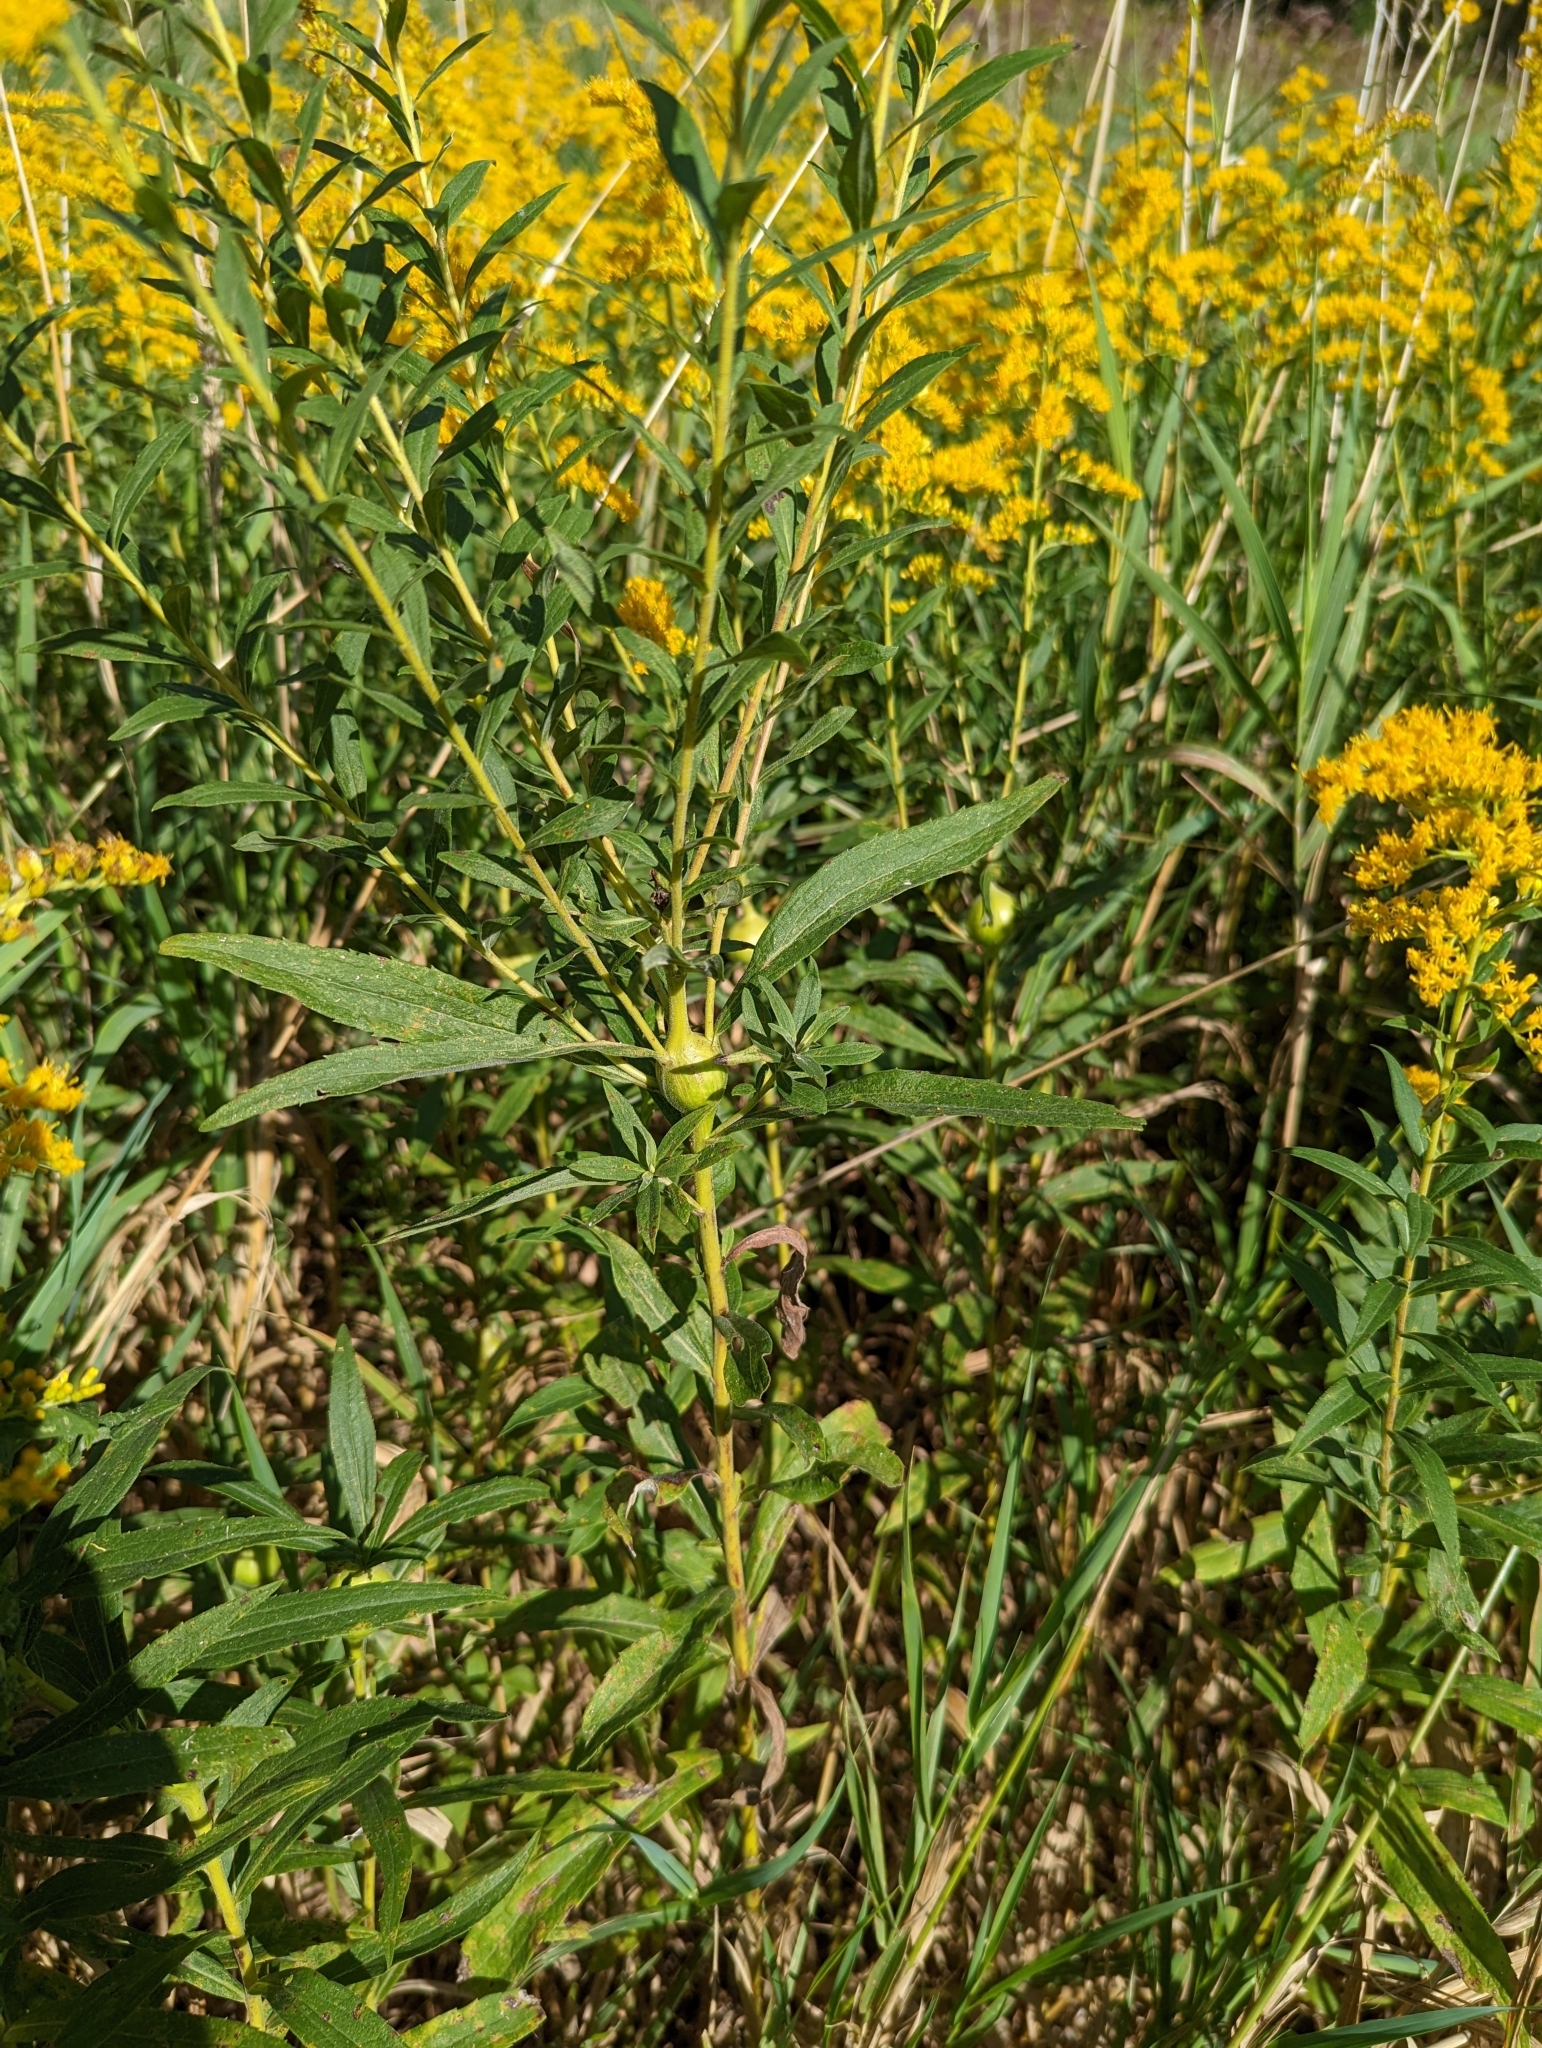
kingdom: Animalia
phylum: Arthropoda
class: Insecta
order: Diptera
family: Tephritidae
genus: Eurosta
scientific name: Eurosta solidaginis
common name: Goldenrod gall fly
